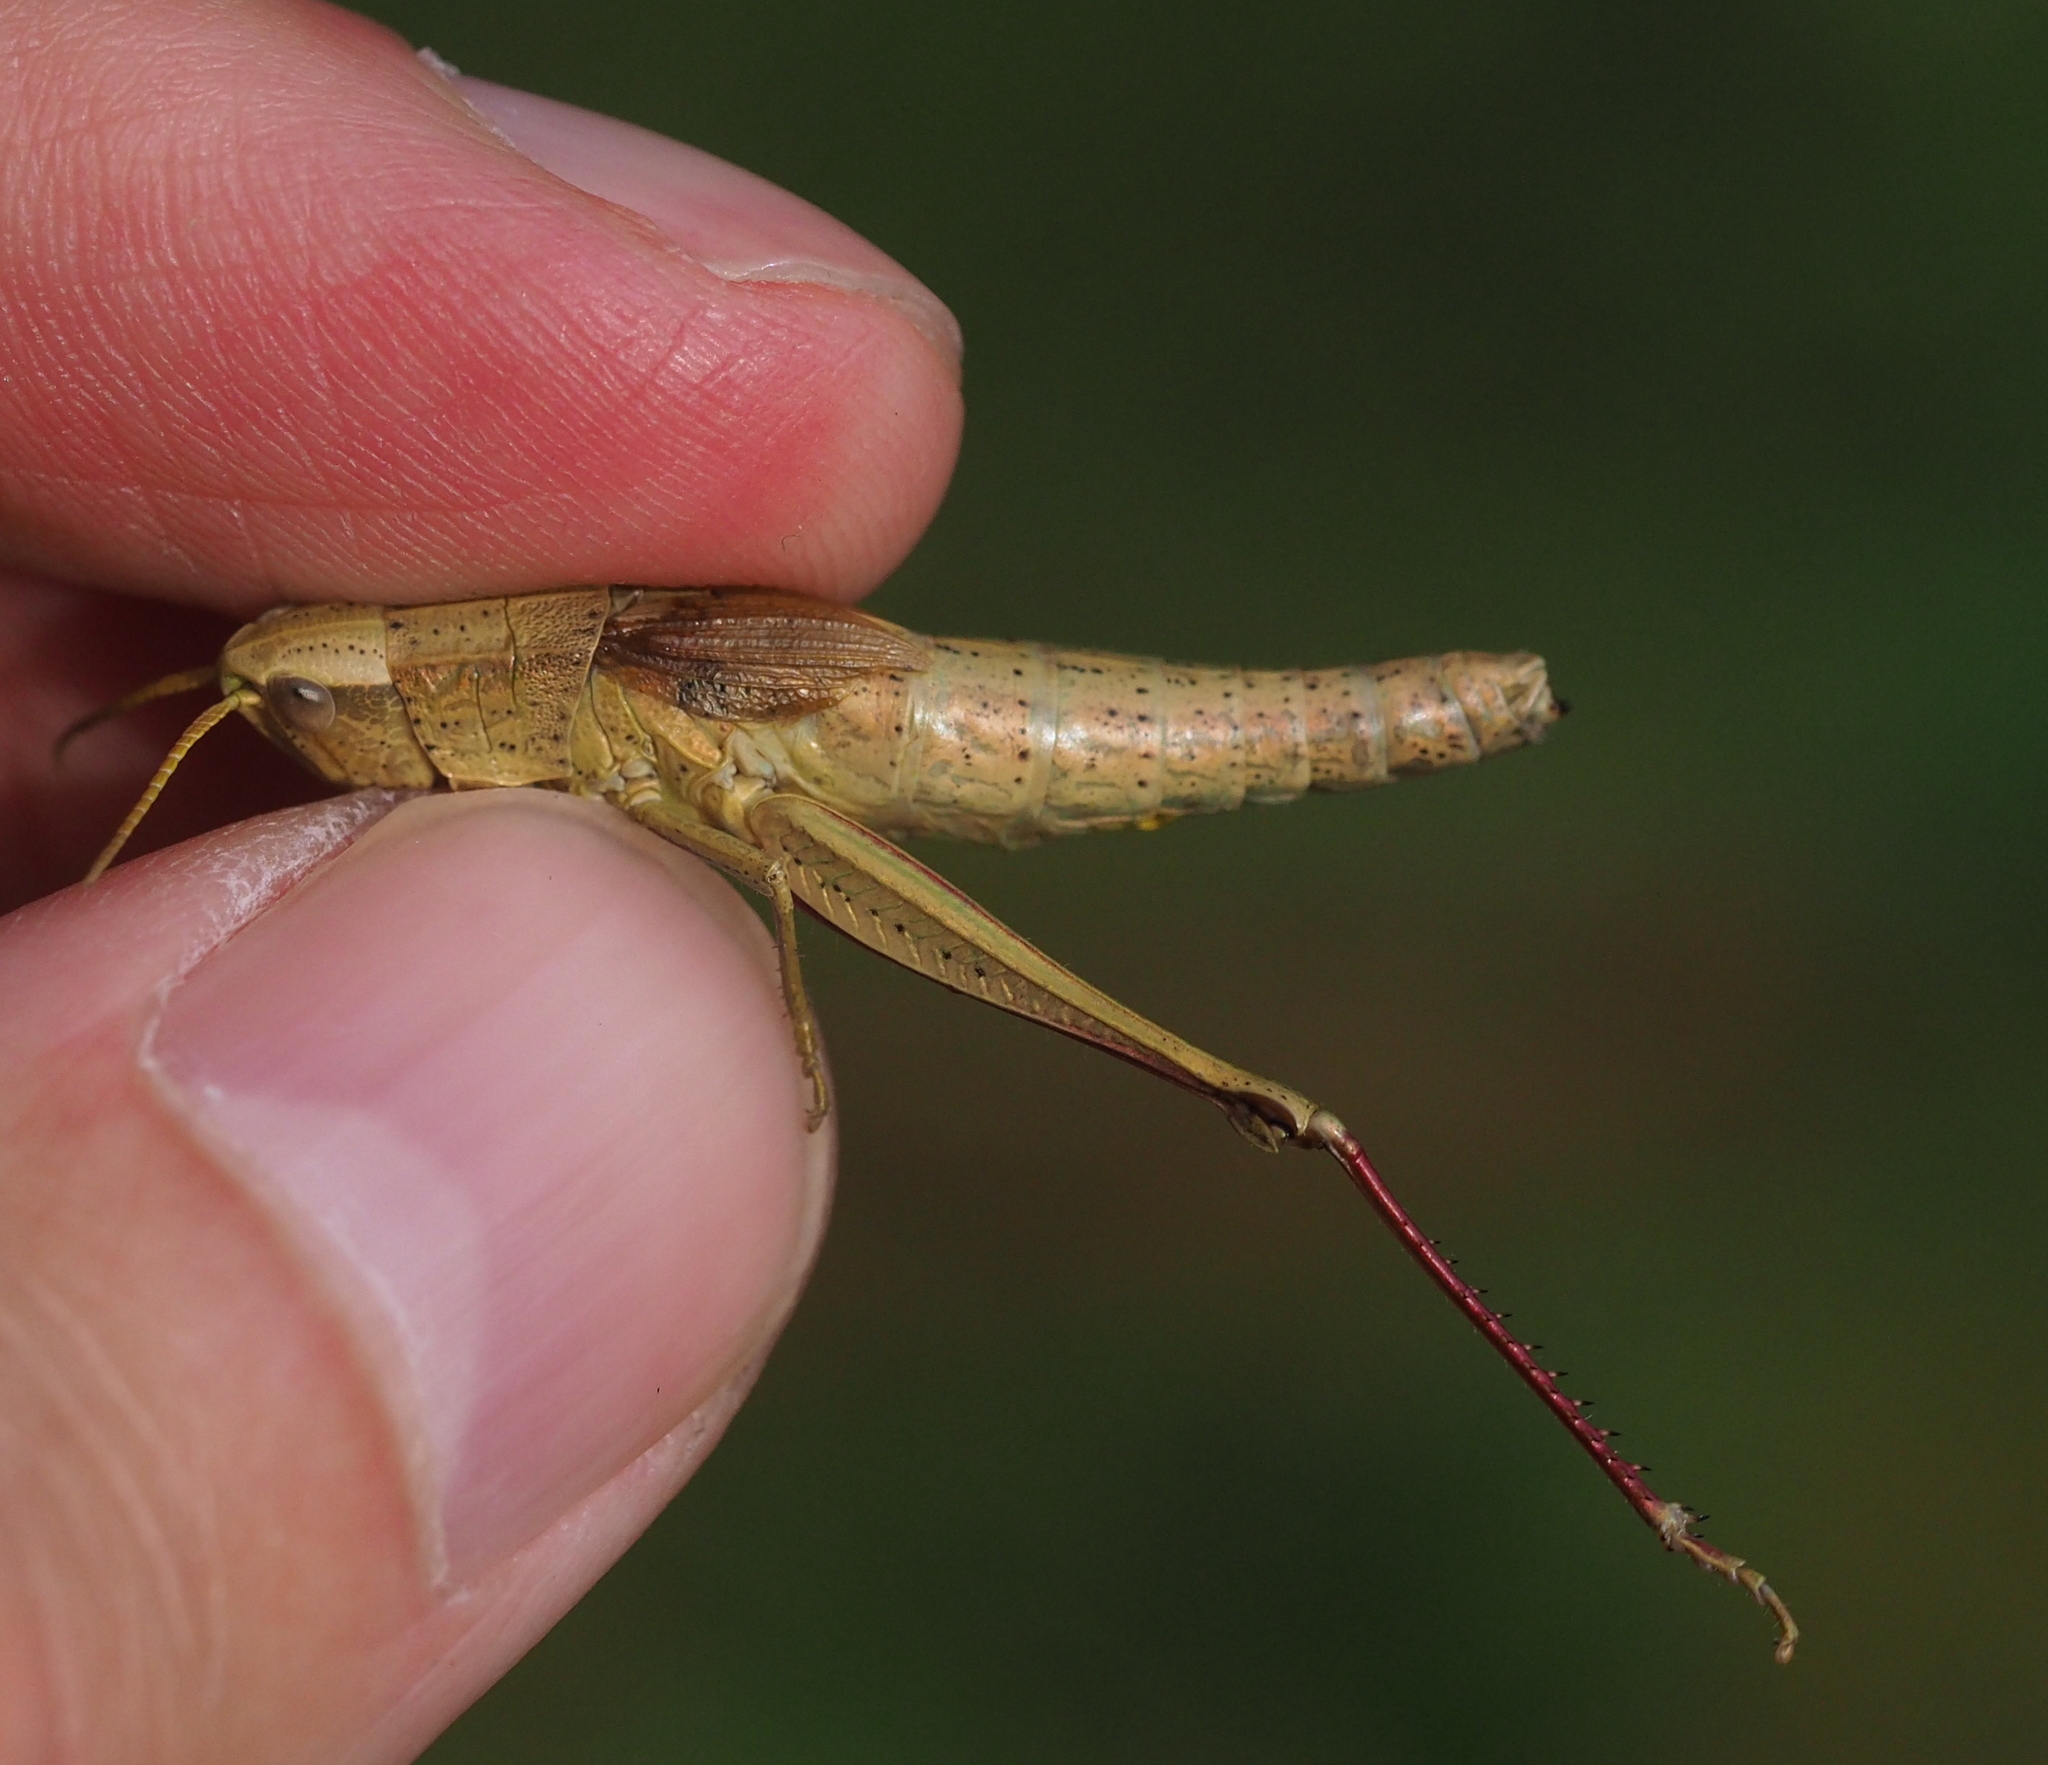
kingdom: Animalia
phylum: Arthropoda
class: Insecta
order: Orthoptera
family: Acrididae
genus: Chrysochraon
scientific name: Chrysochraon dispar
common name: Large gold grasshopper
